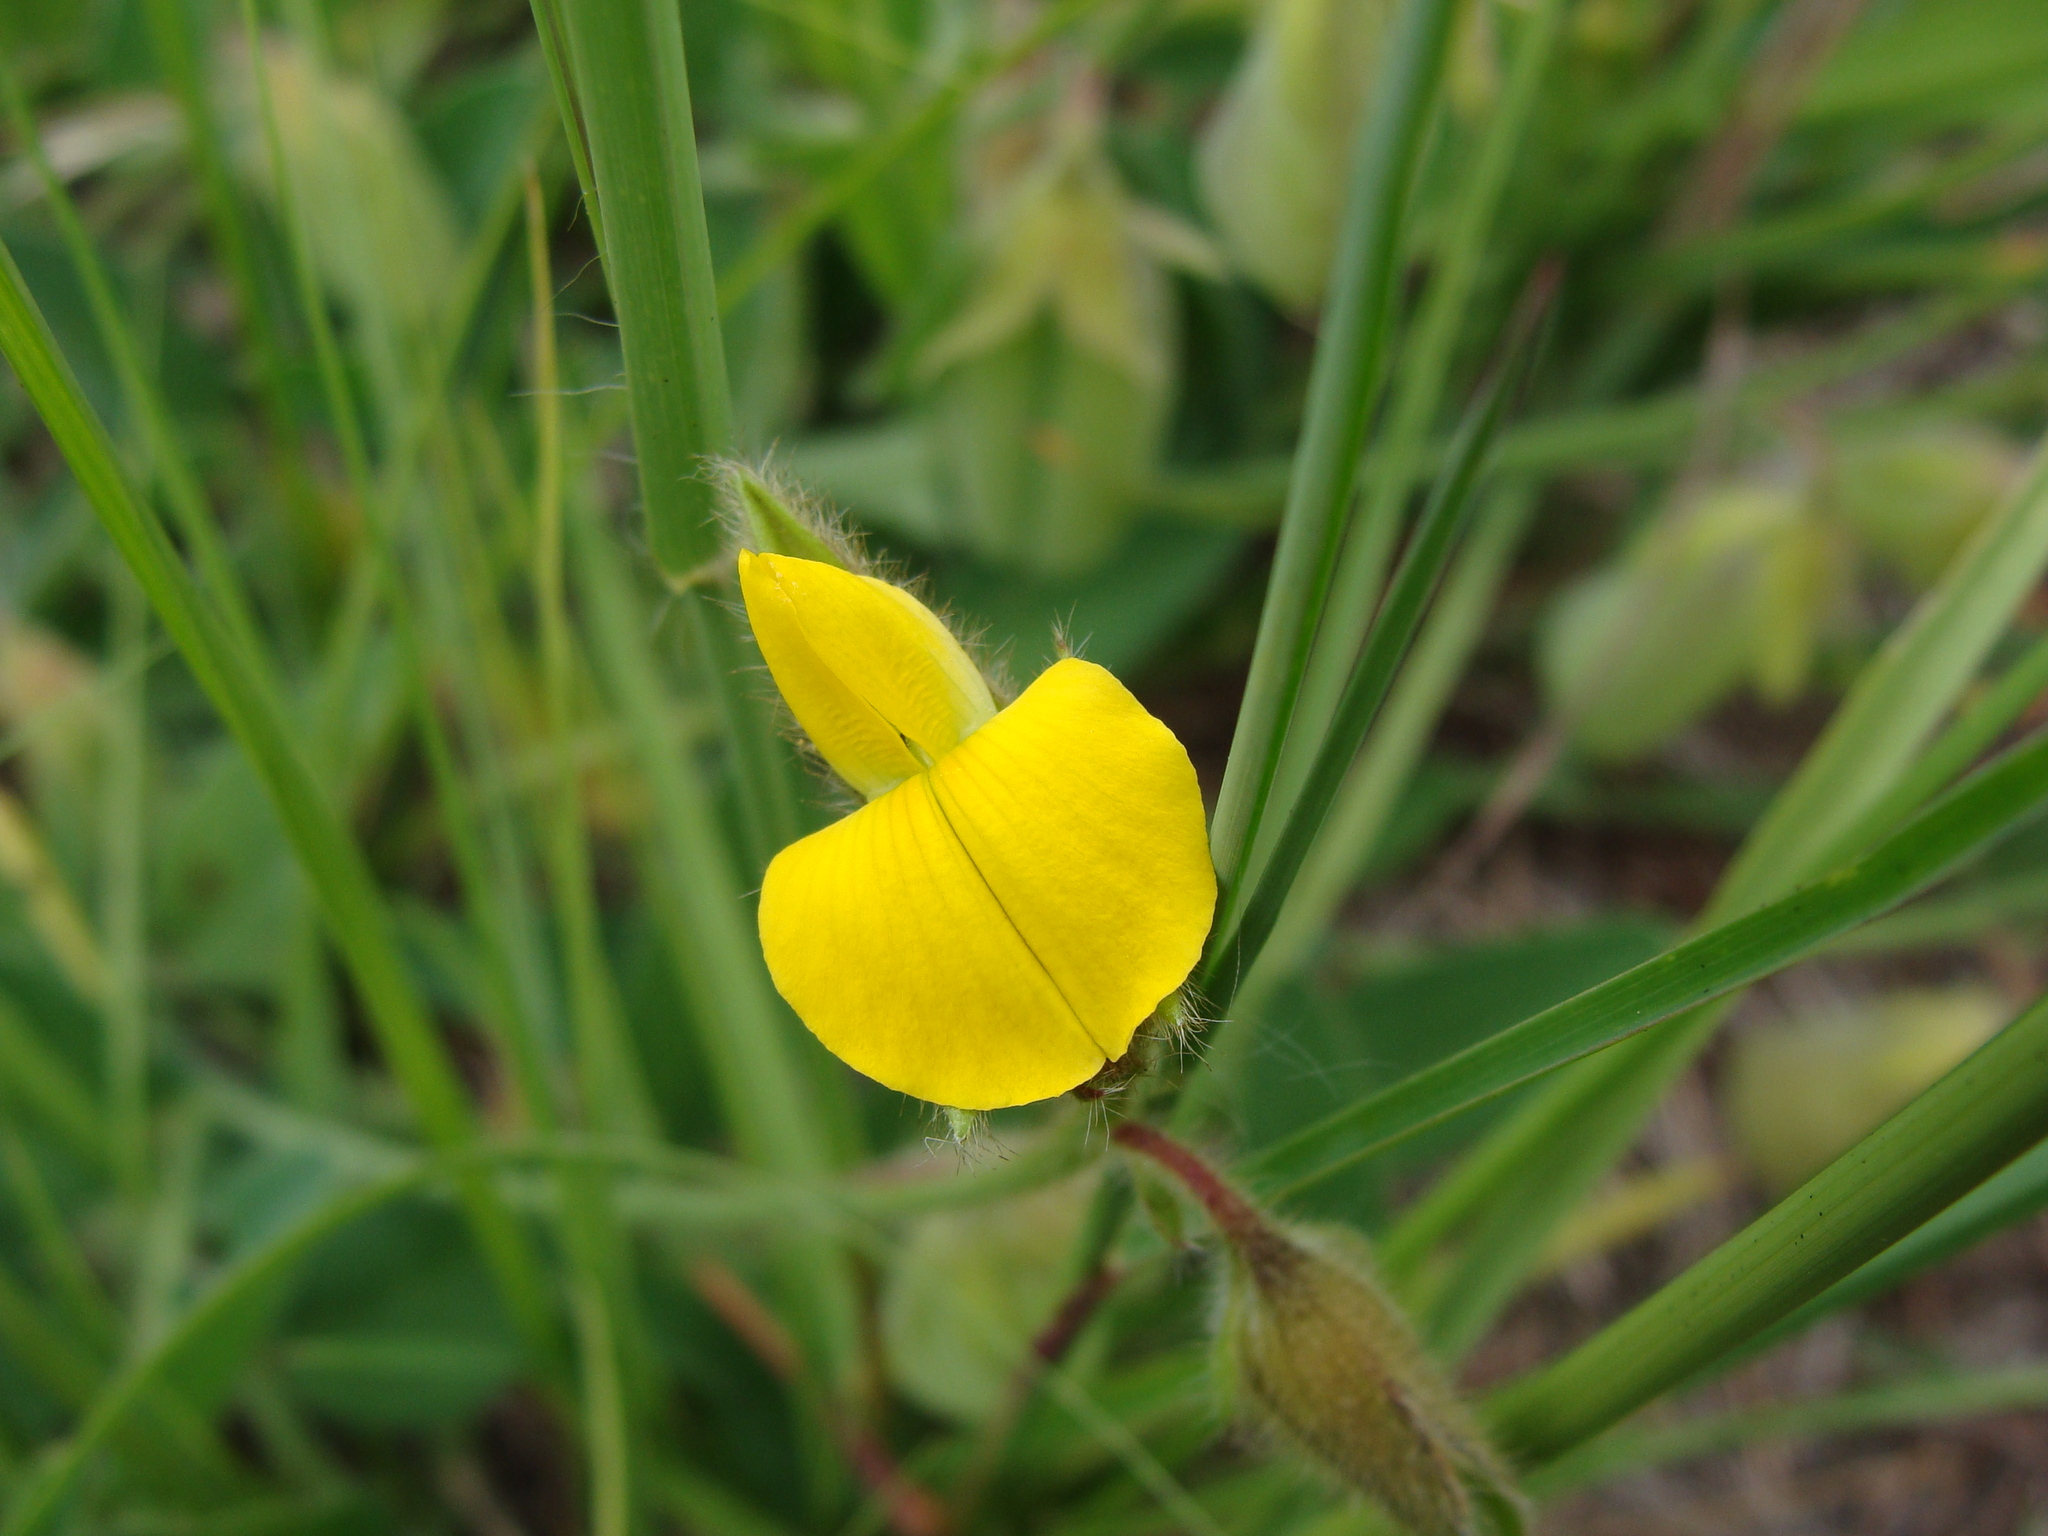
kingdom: Plantae
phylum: Tracheophyta
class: Magnoliopsida
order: Fabales
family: Fabaceae
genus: Crotalaria
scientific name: Crotalaria sagittalis
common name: Arrowhead rattlebox
